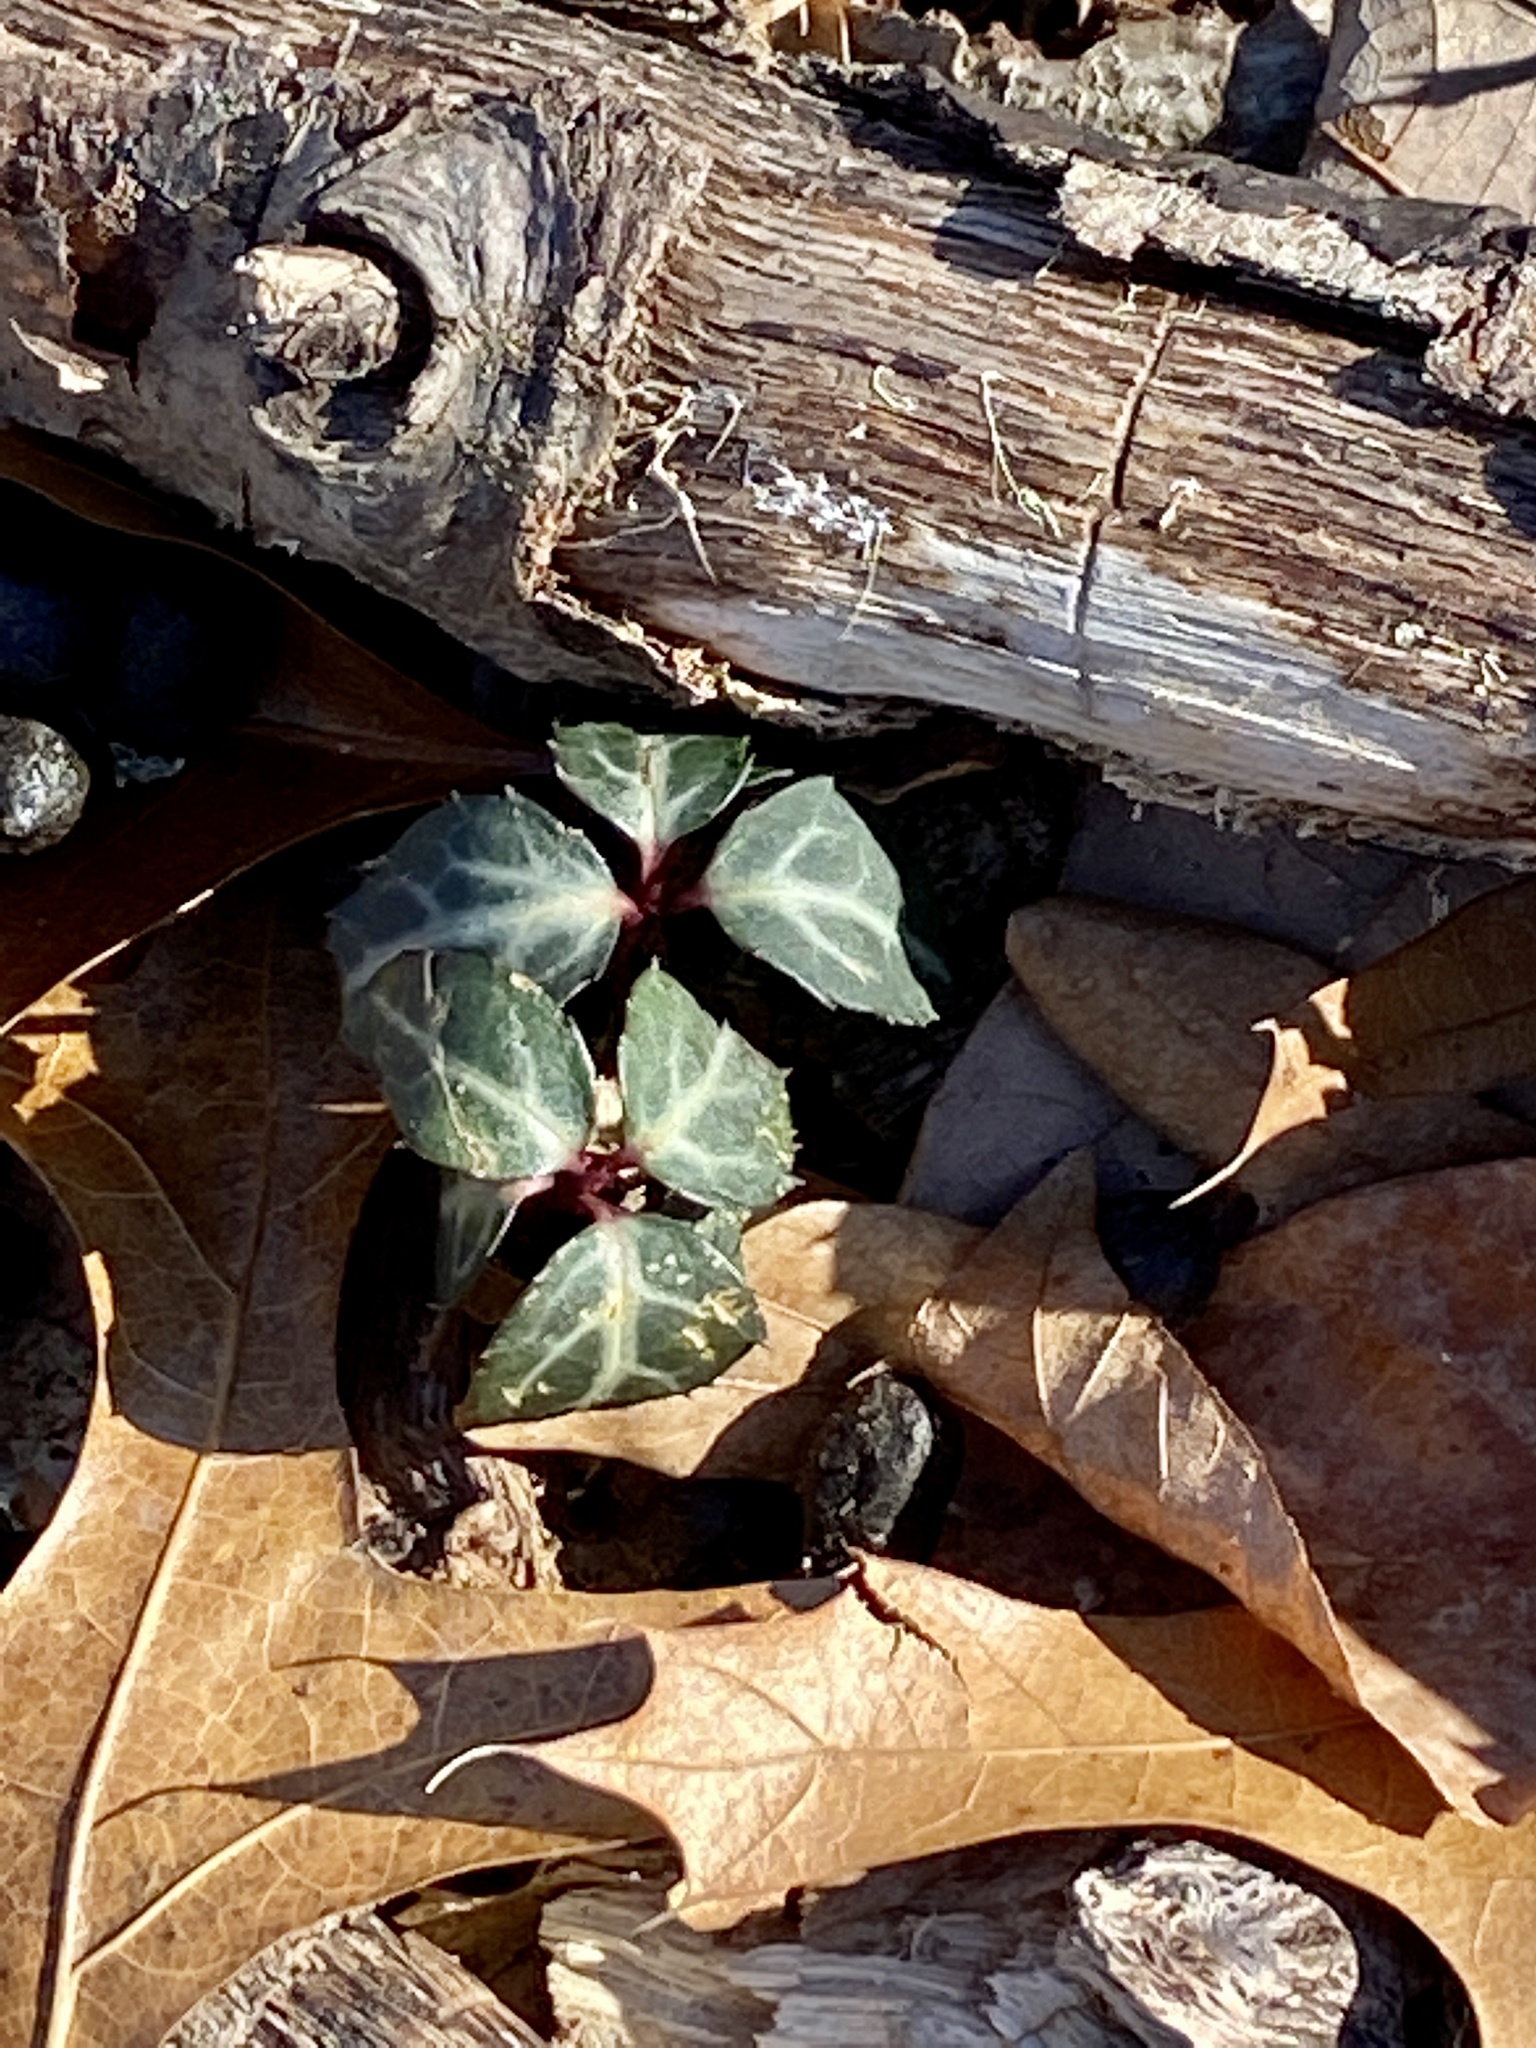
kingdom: Plantae
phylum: Tracheophyta
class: Magnoliopsida
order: Ericales
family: Ericaceae
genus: Chimaphila
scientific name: Chimaphila maculata
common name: Spotted pipsissewa
